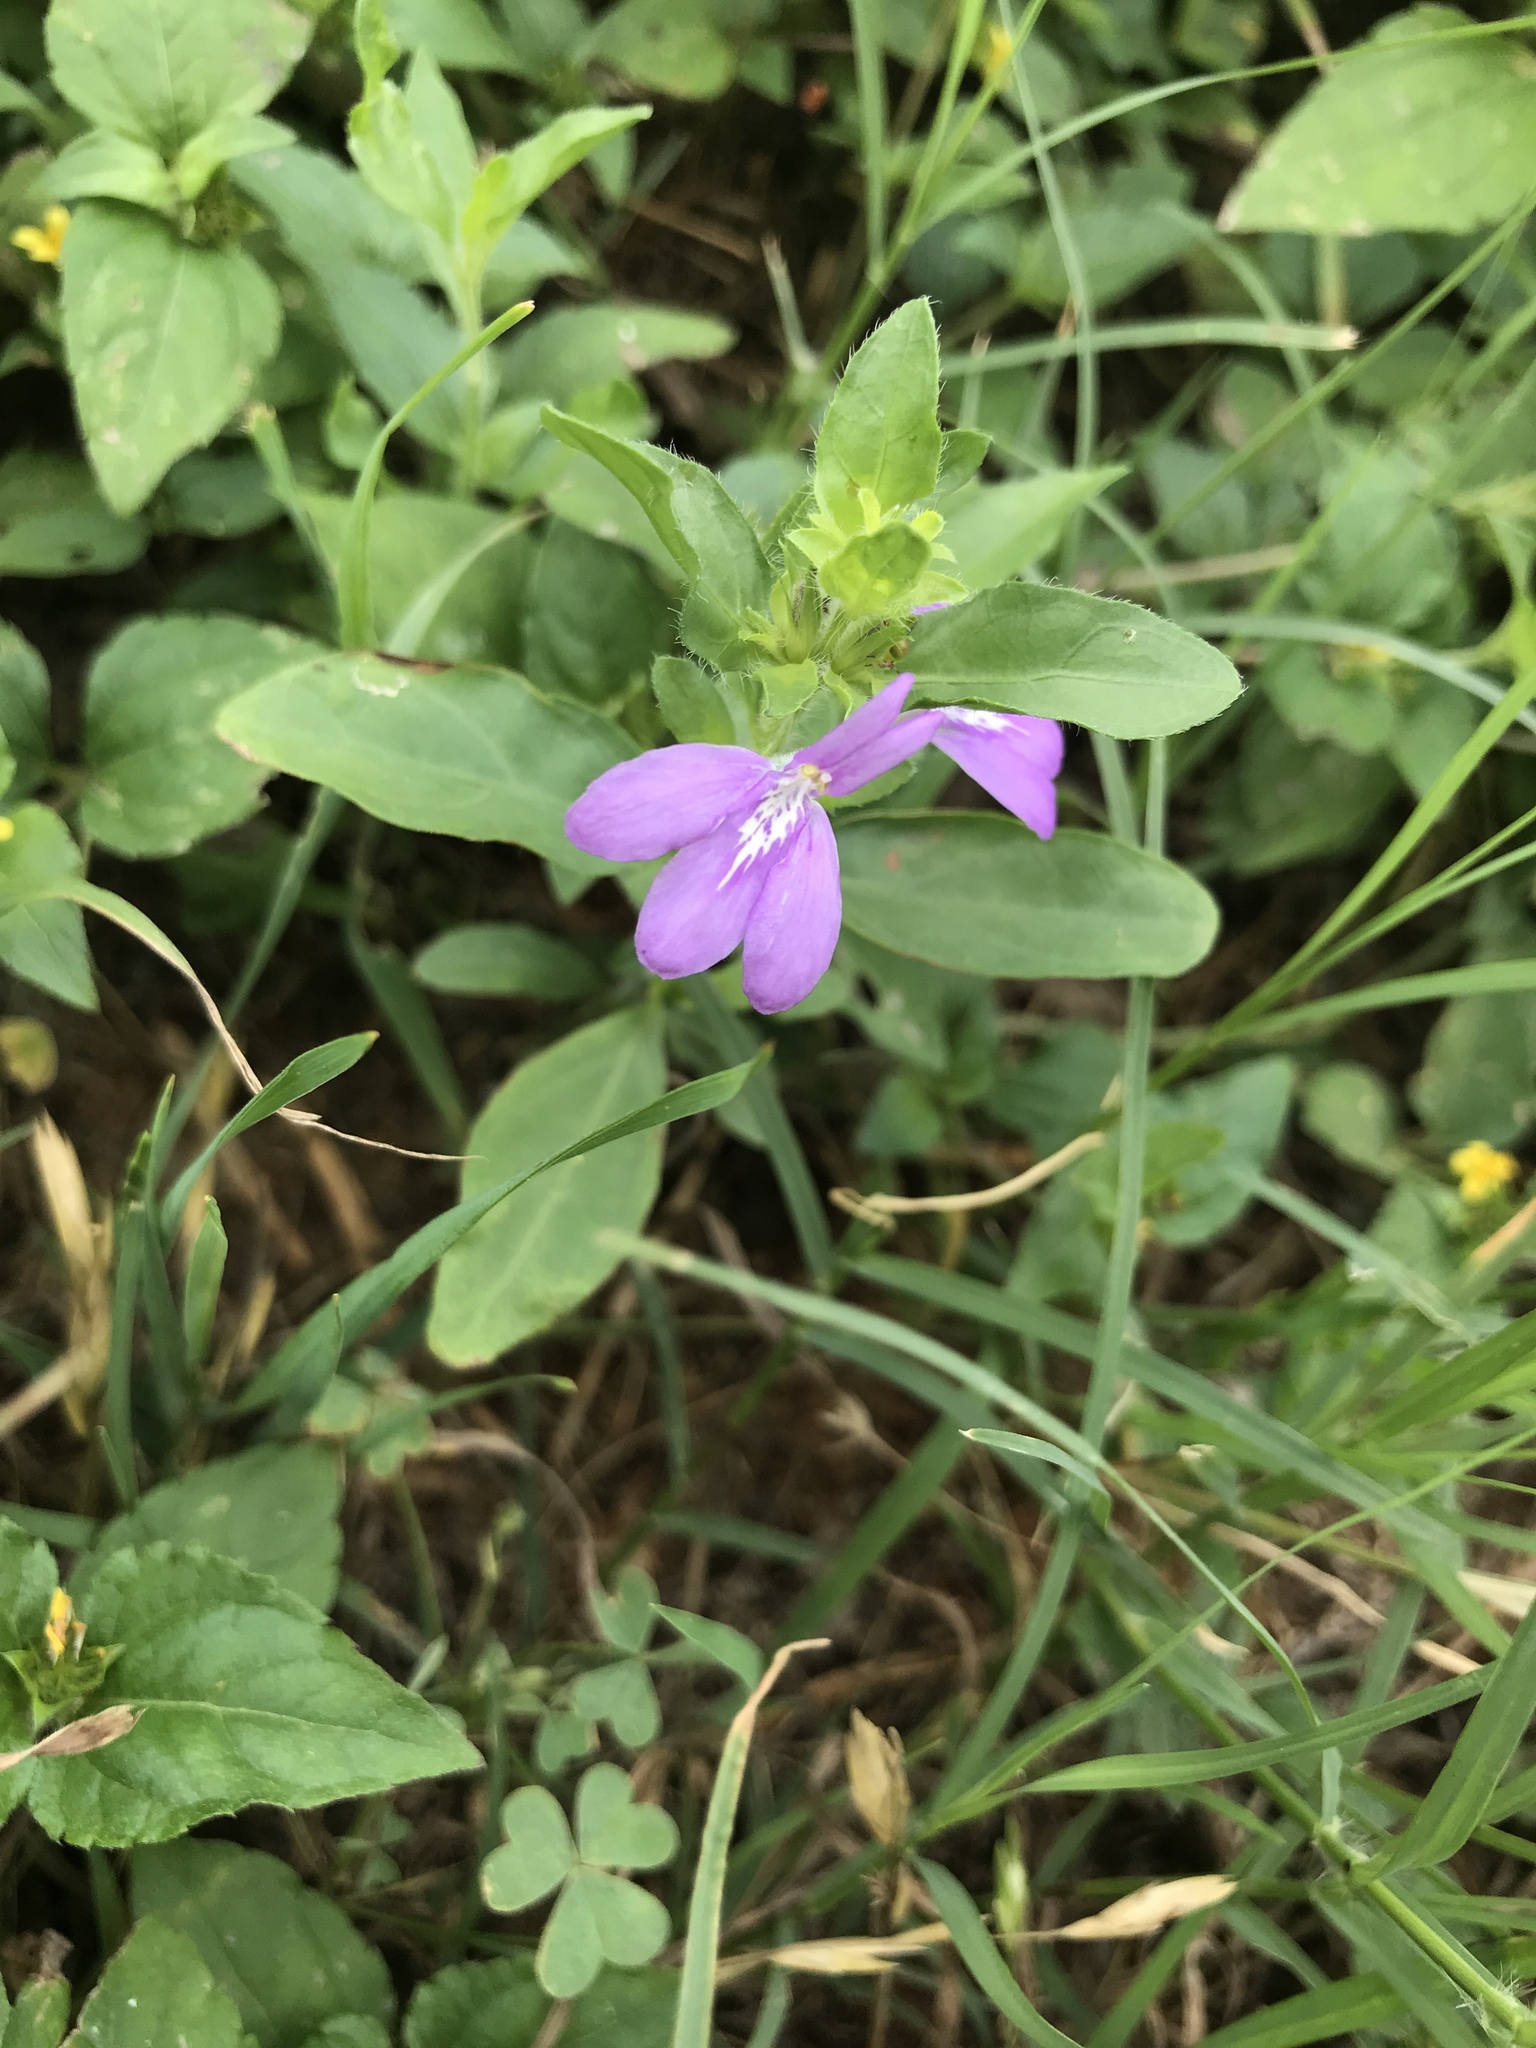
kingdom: Plantae
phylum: Tracheophyta
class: Magnoliopsida
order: Lamiales
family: Acanthaceae
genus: Justicia
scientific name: Justicia pilosella
